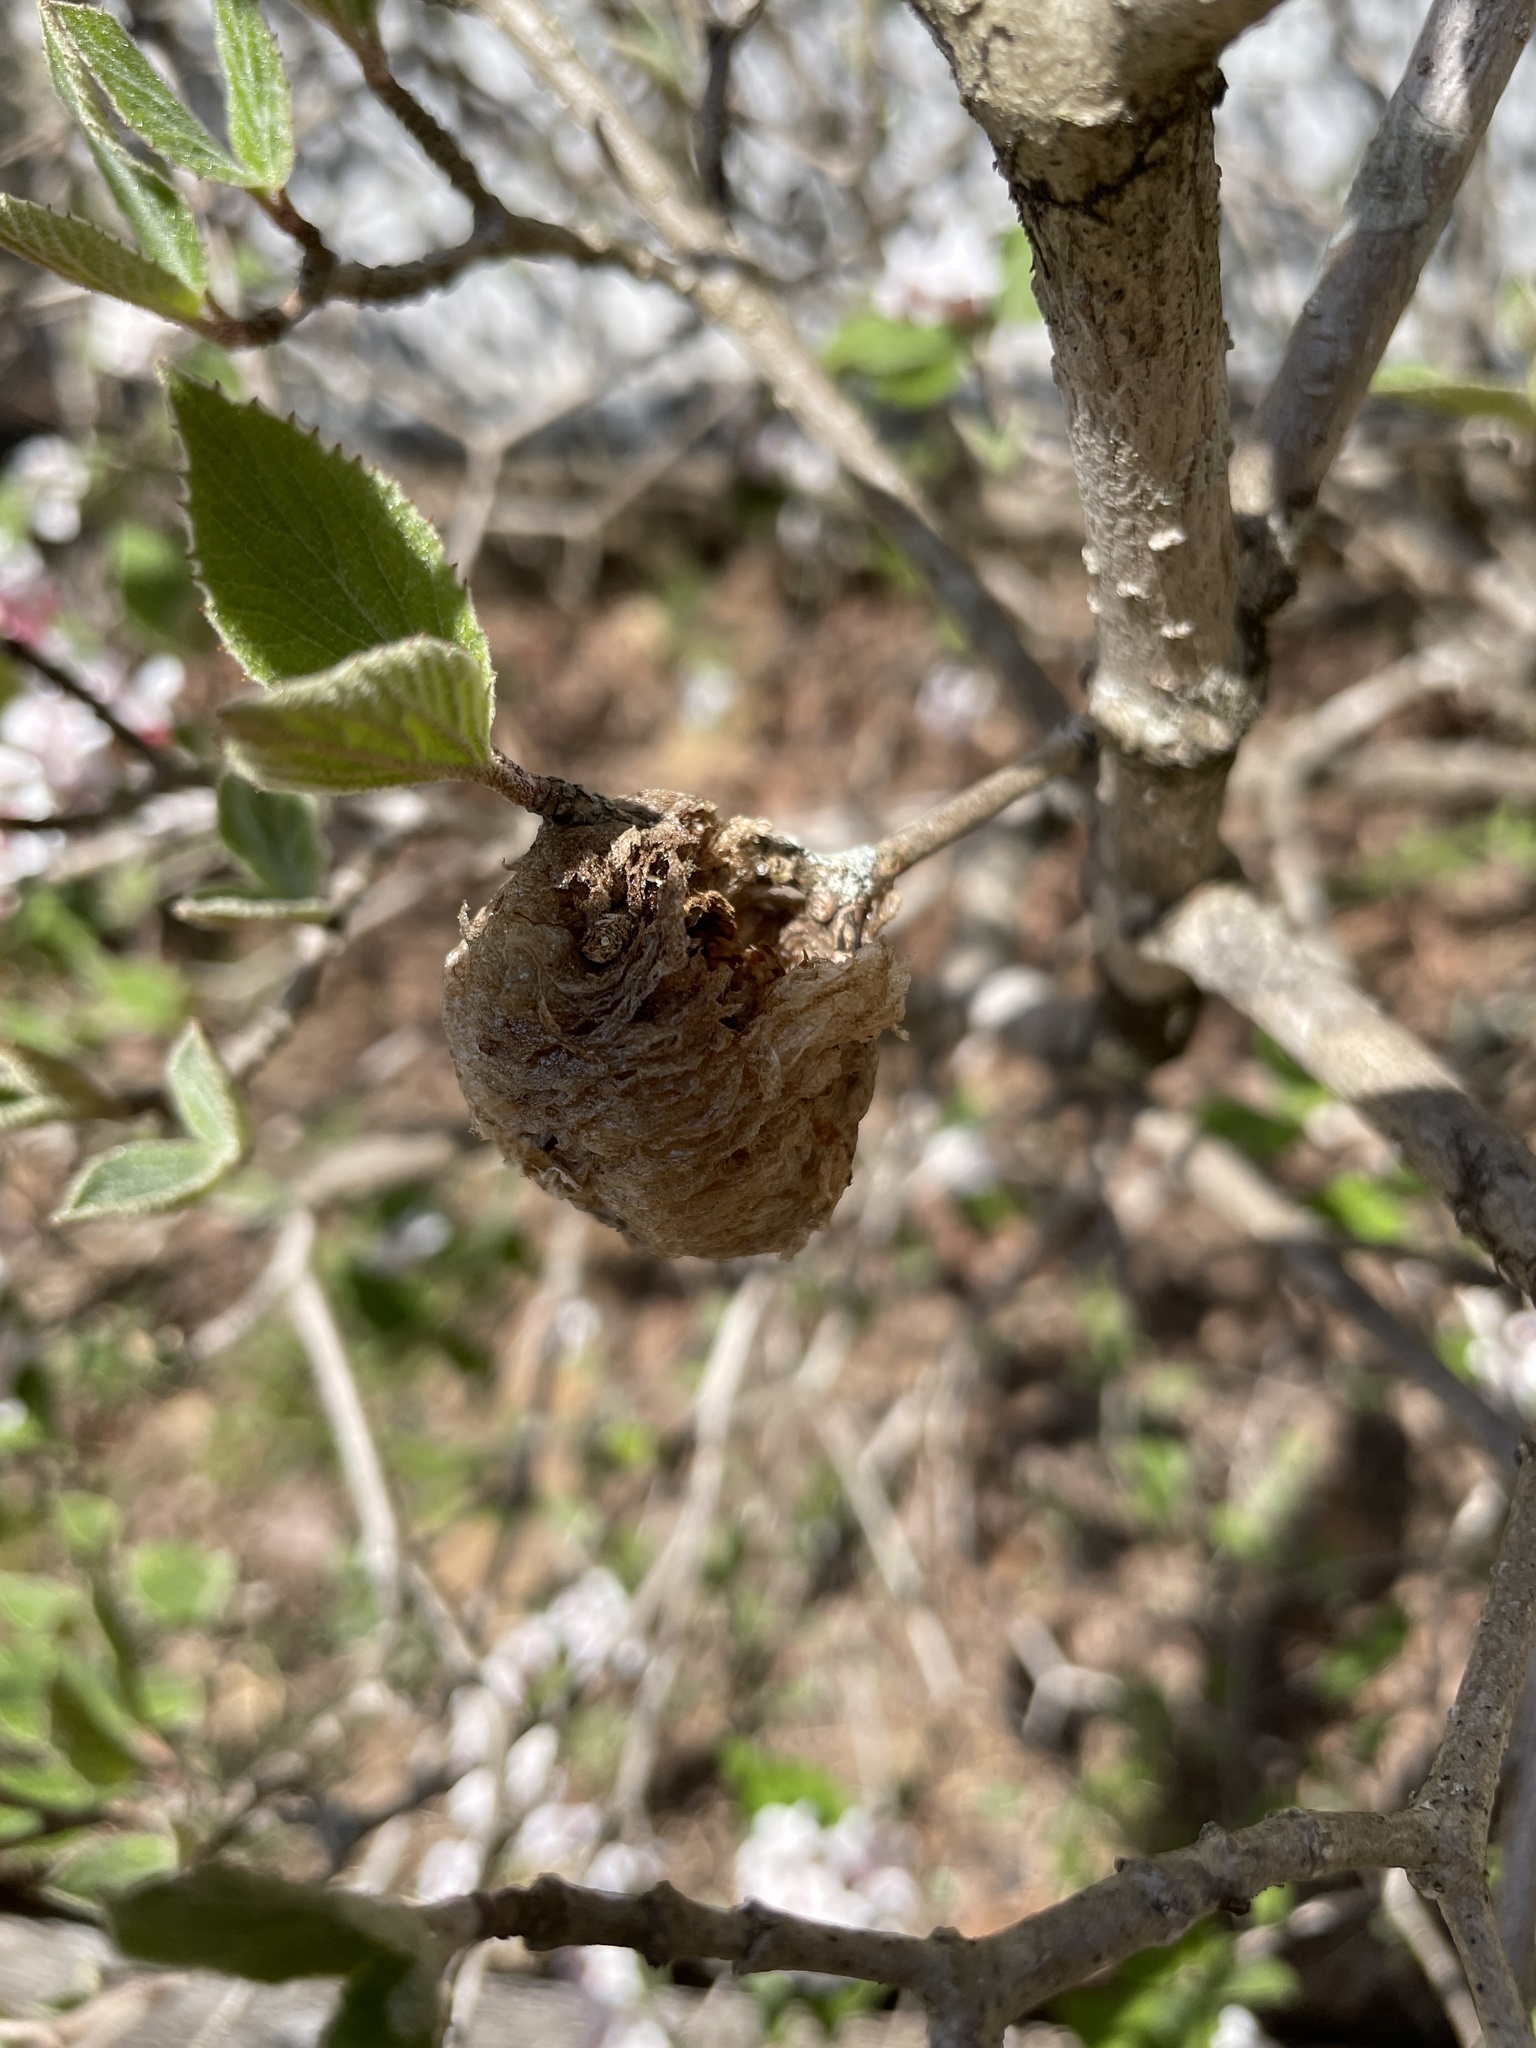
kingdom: Animalia
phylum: Arthropoda
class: Insecta
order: Mantodea
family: Mantidae
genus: Tenodera
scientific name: Tenodera sinensis
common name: Chinese mantis
